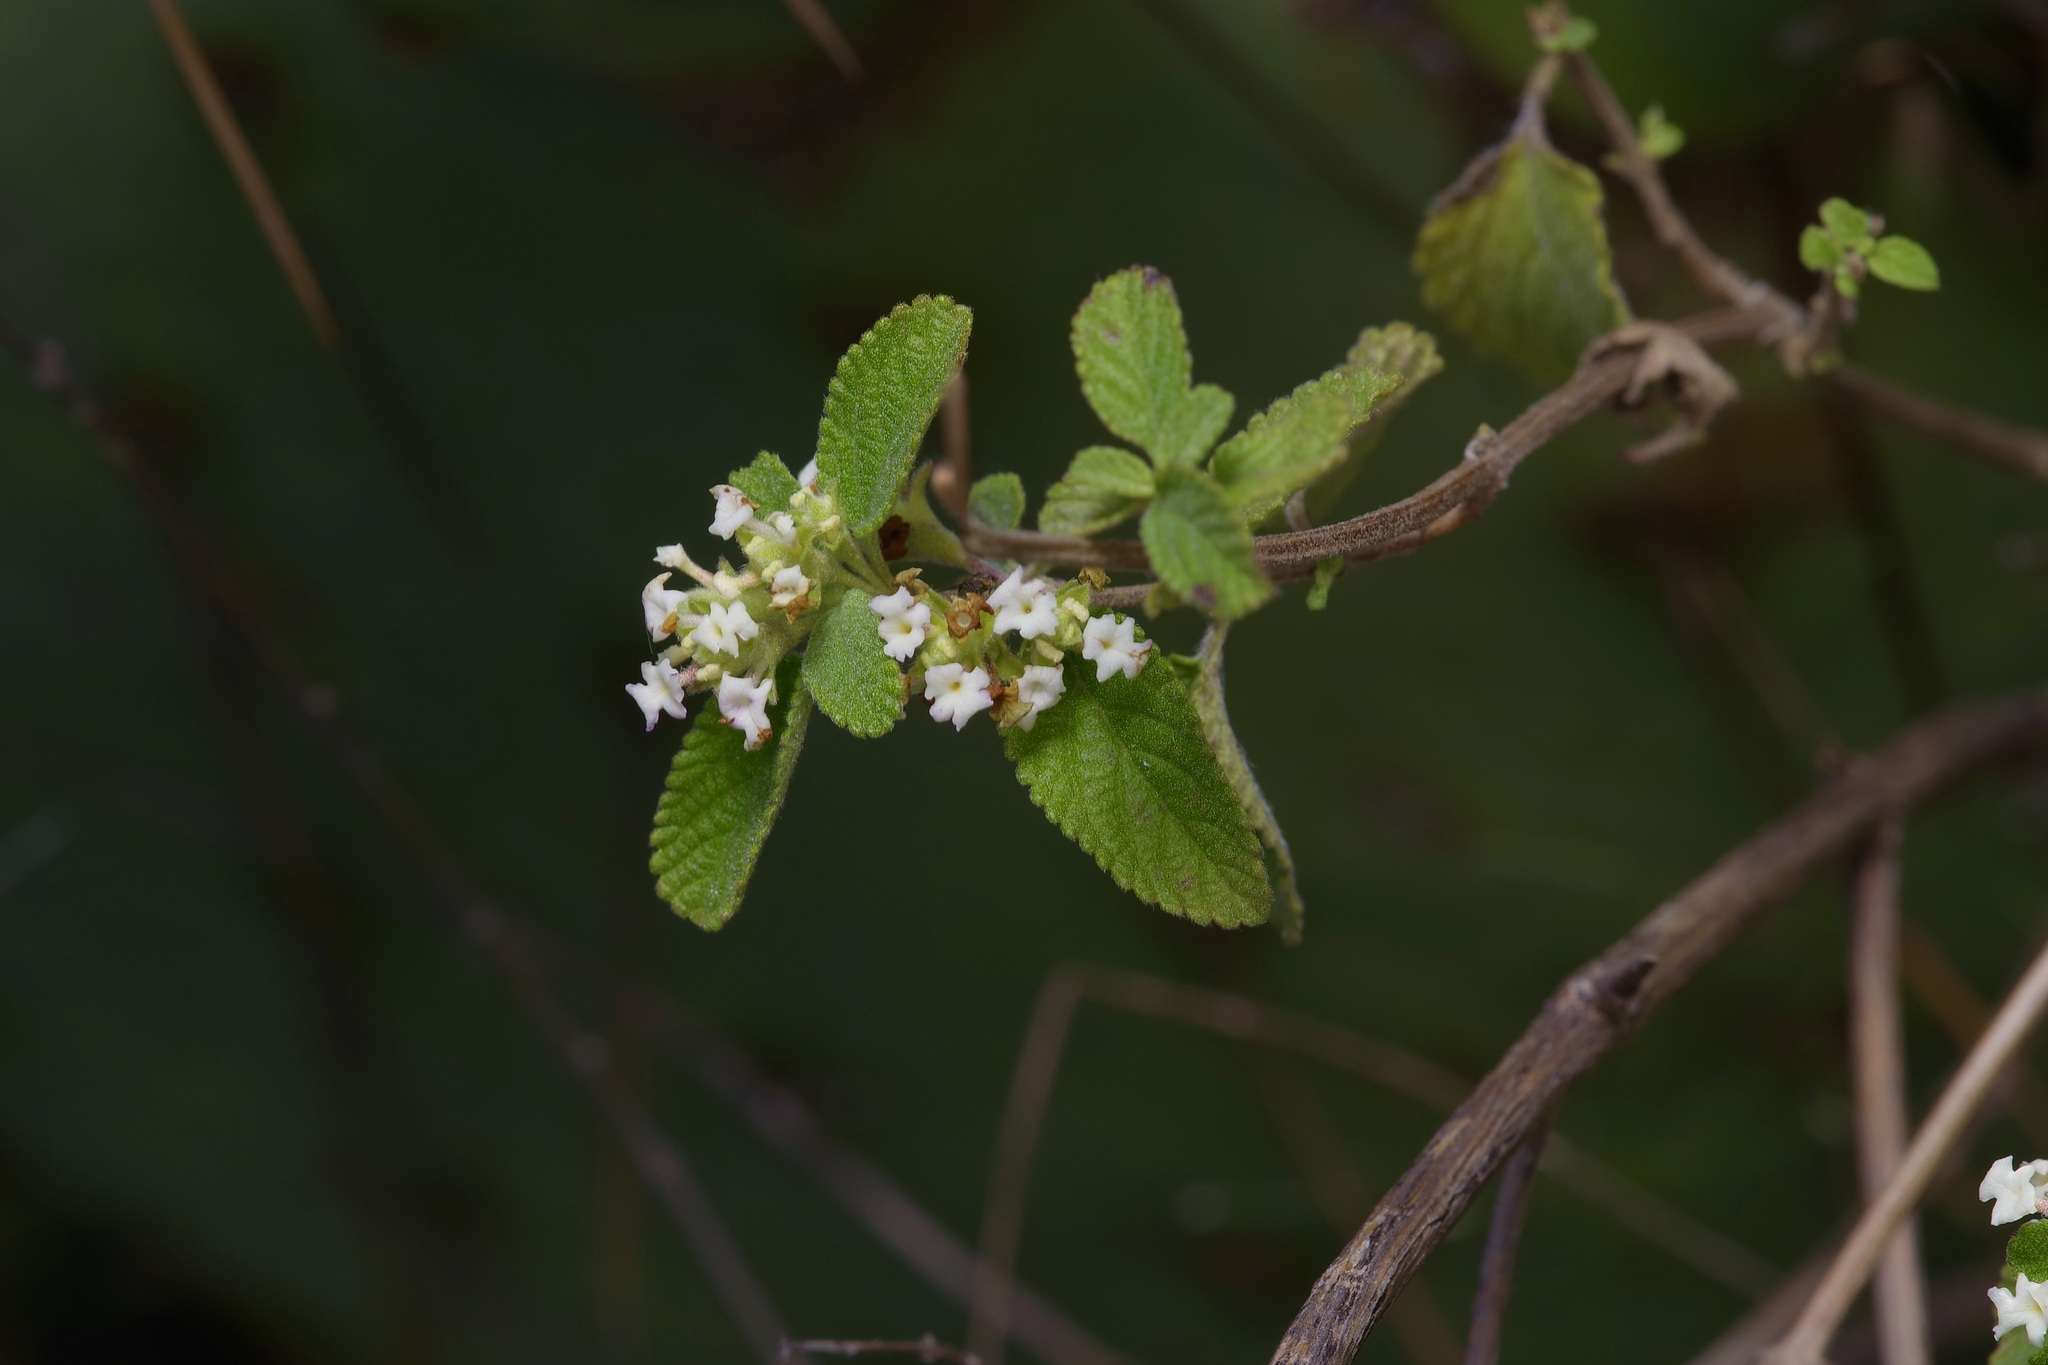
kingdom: Plantae
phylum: Tracheophyta
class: Magnoliopsida
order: Lamiales
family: Verbenaceae
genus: Lippia
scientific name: Lippia origanoides
